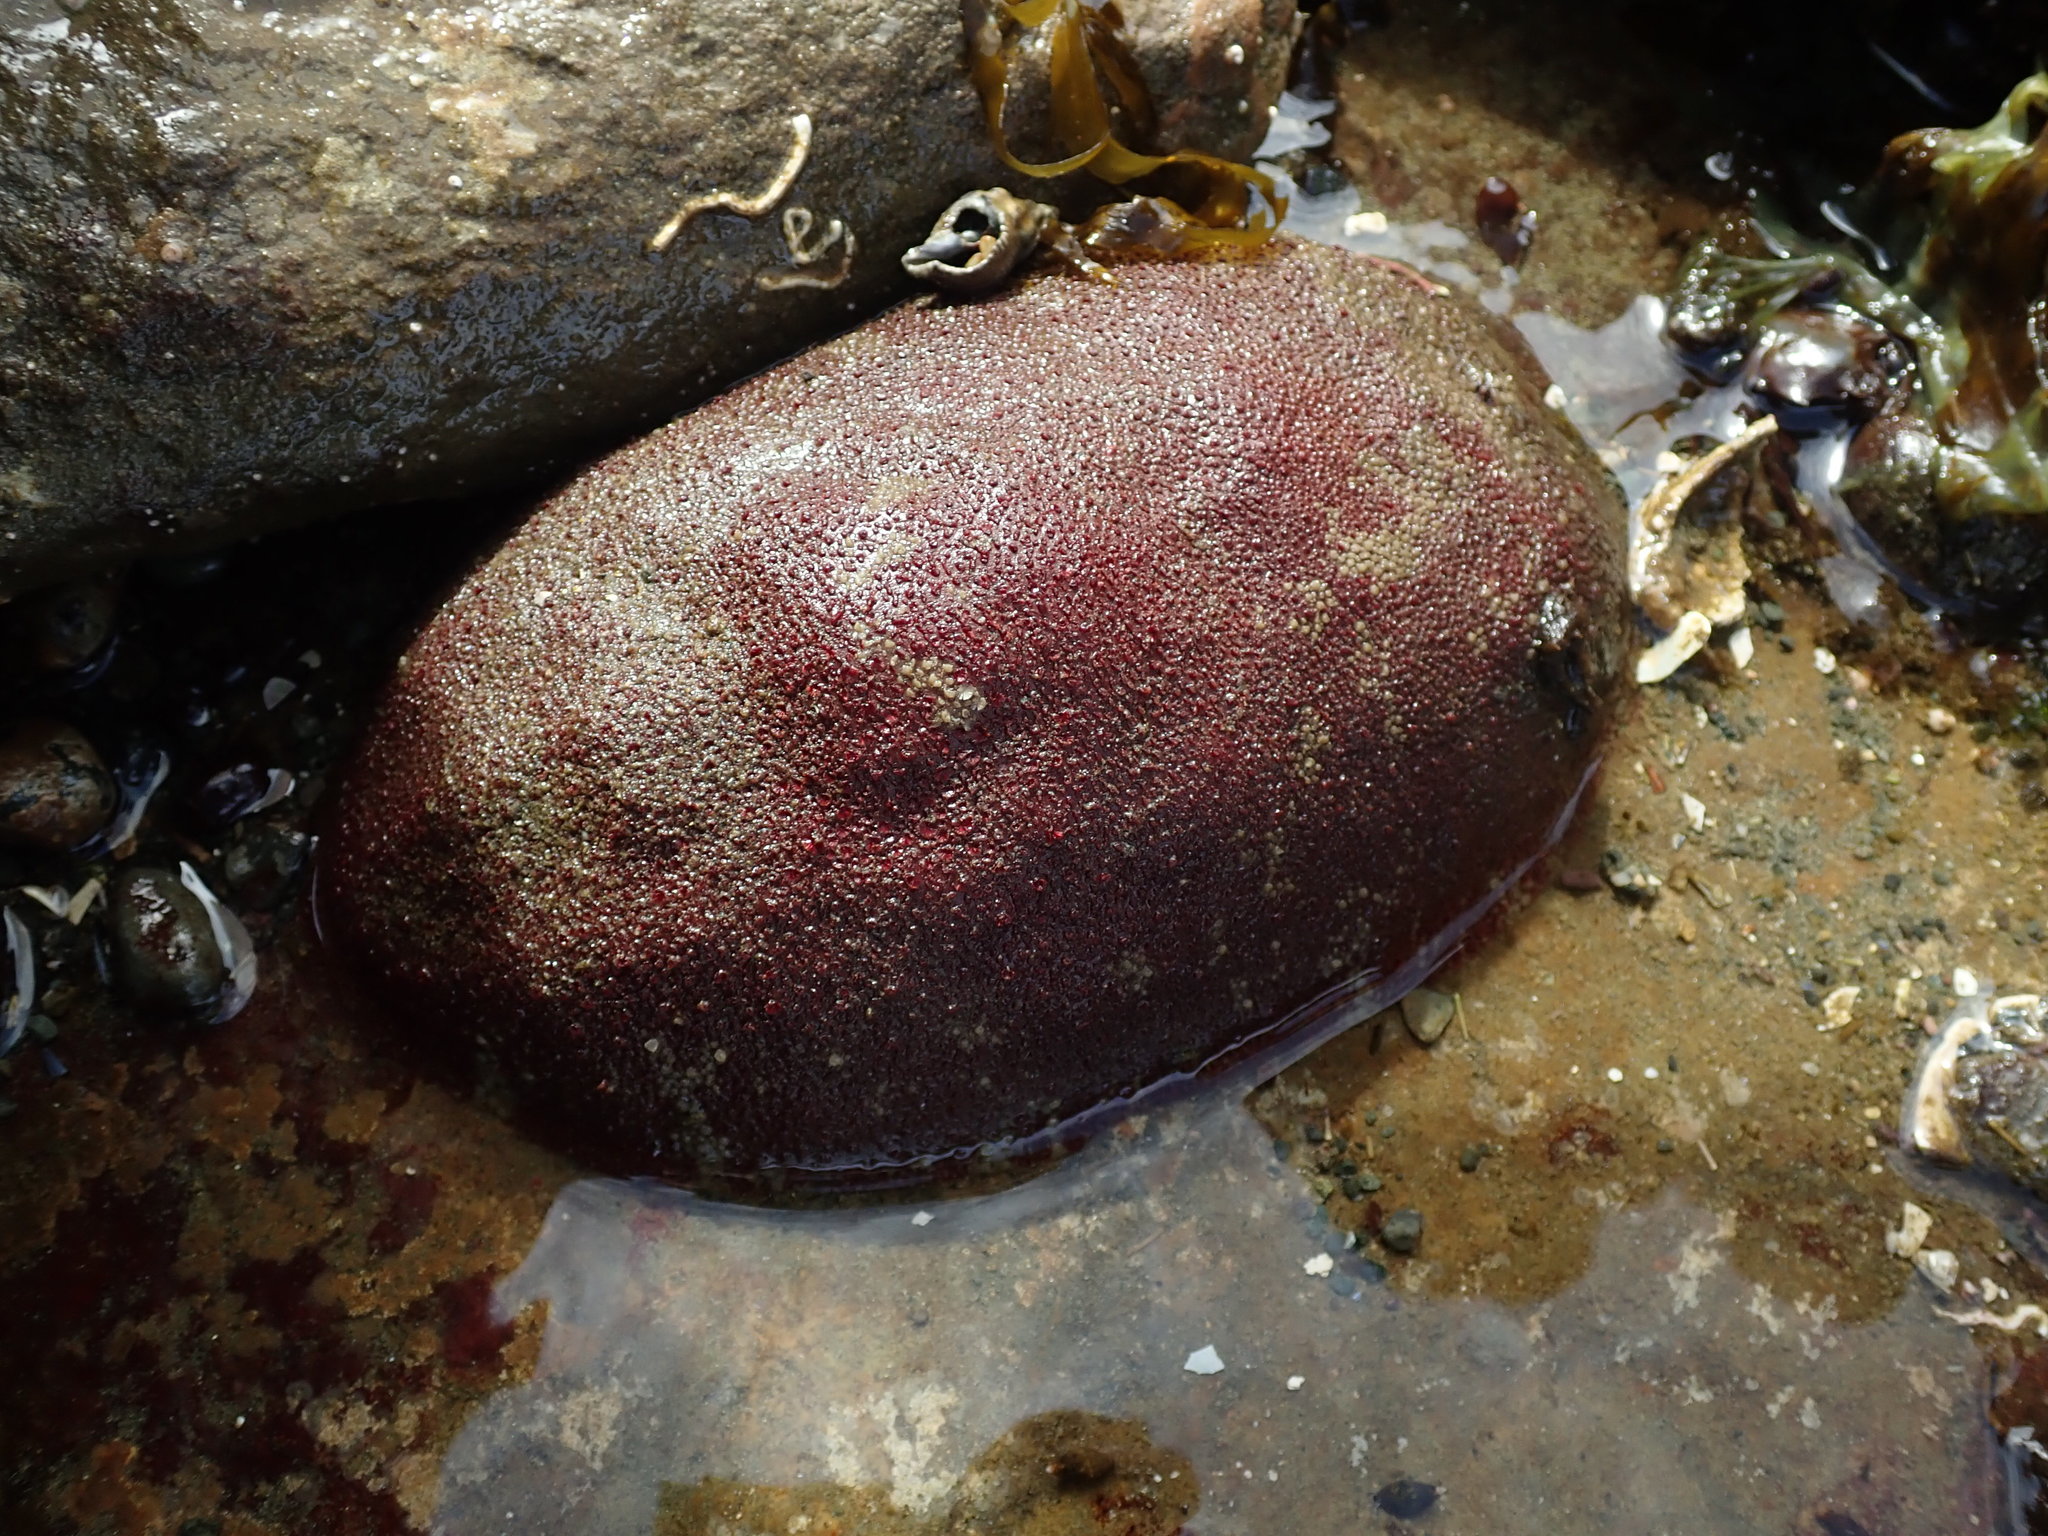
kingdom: Animalia
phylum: Mollusca
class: Polyplacophora
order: Chitonida
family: Acanthochitonidae
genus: Cryptochiton
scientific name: Cryptochiton stelleri
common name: Giant pacific chiton
